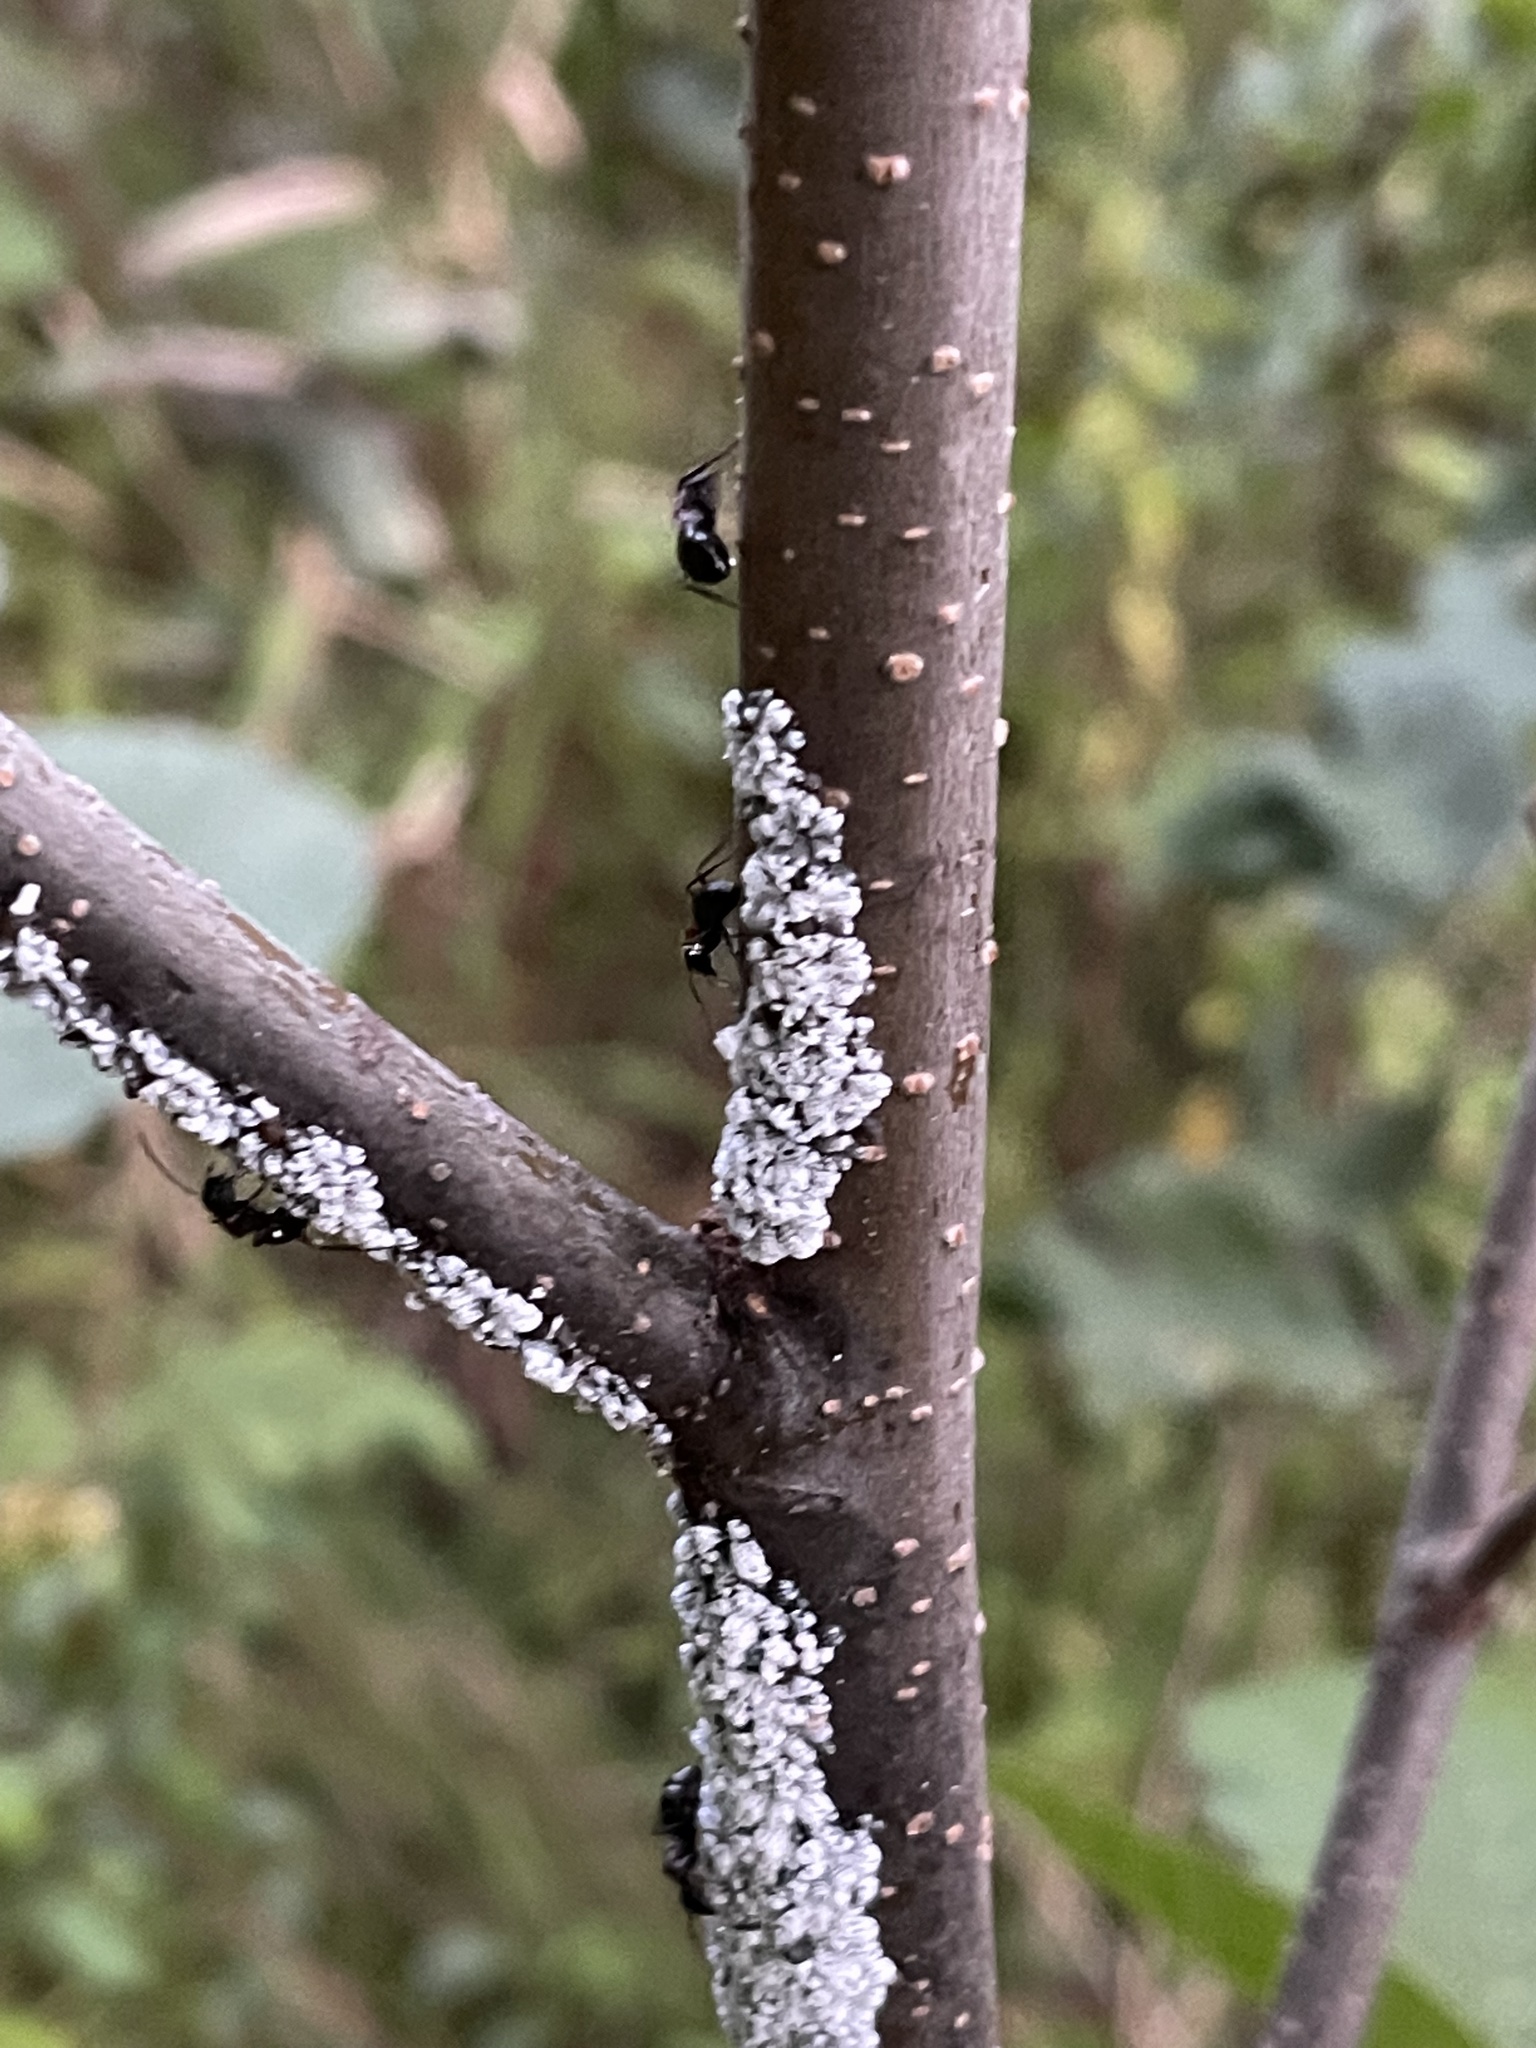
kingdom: Animalia
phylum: Arthropoda
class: Insecta
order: Hymenoptera
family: Formicidae
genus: Camponotus
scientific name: Camponotus novaeboracensis
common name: New york carpenter ant
